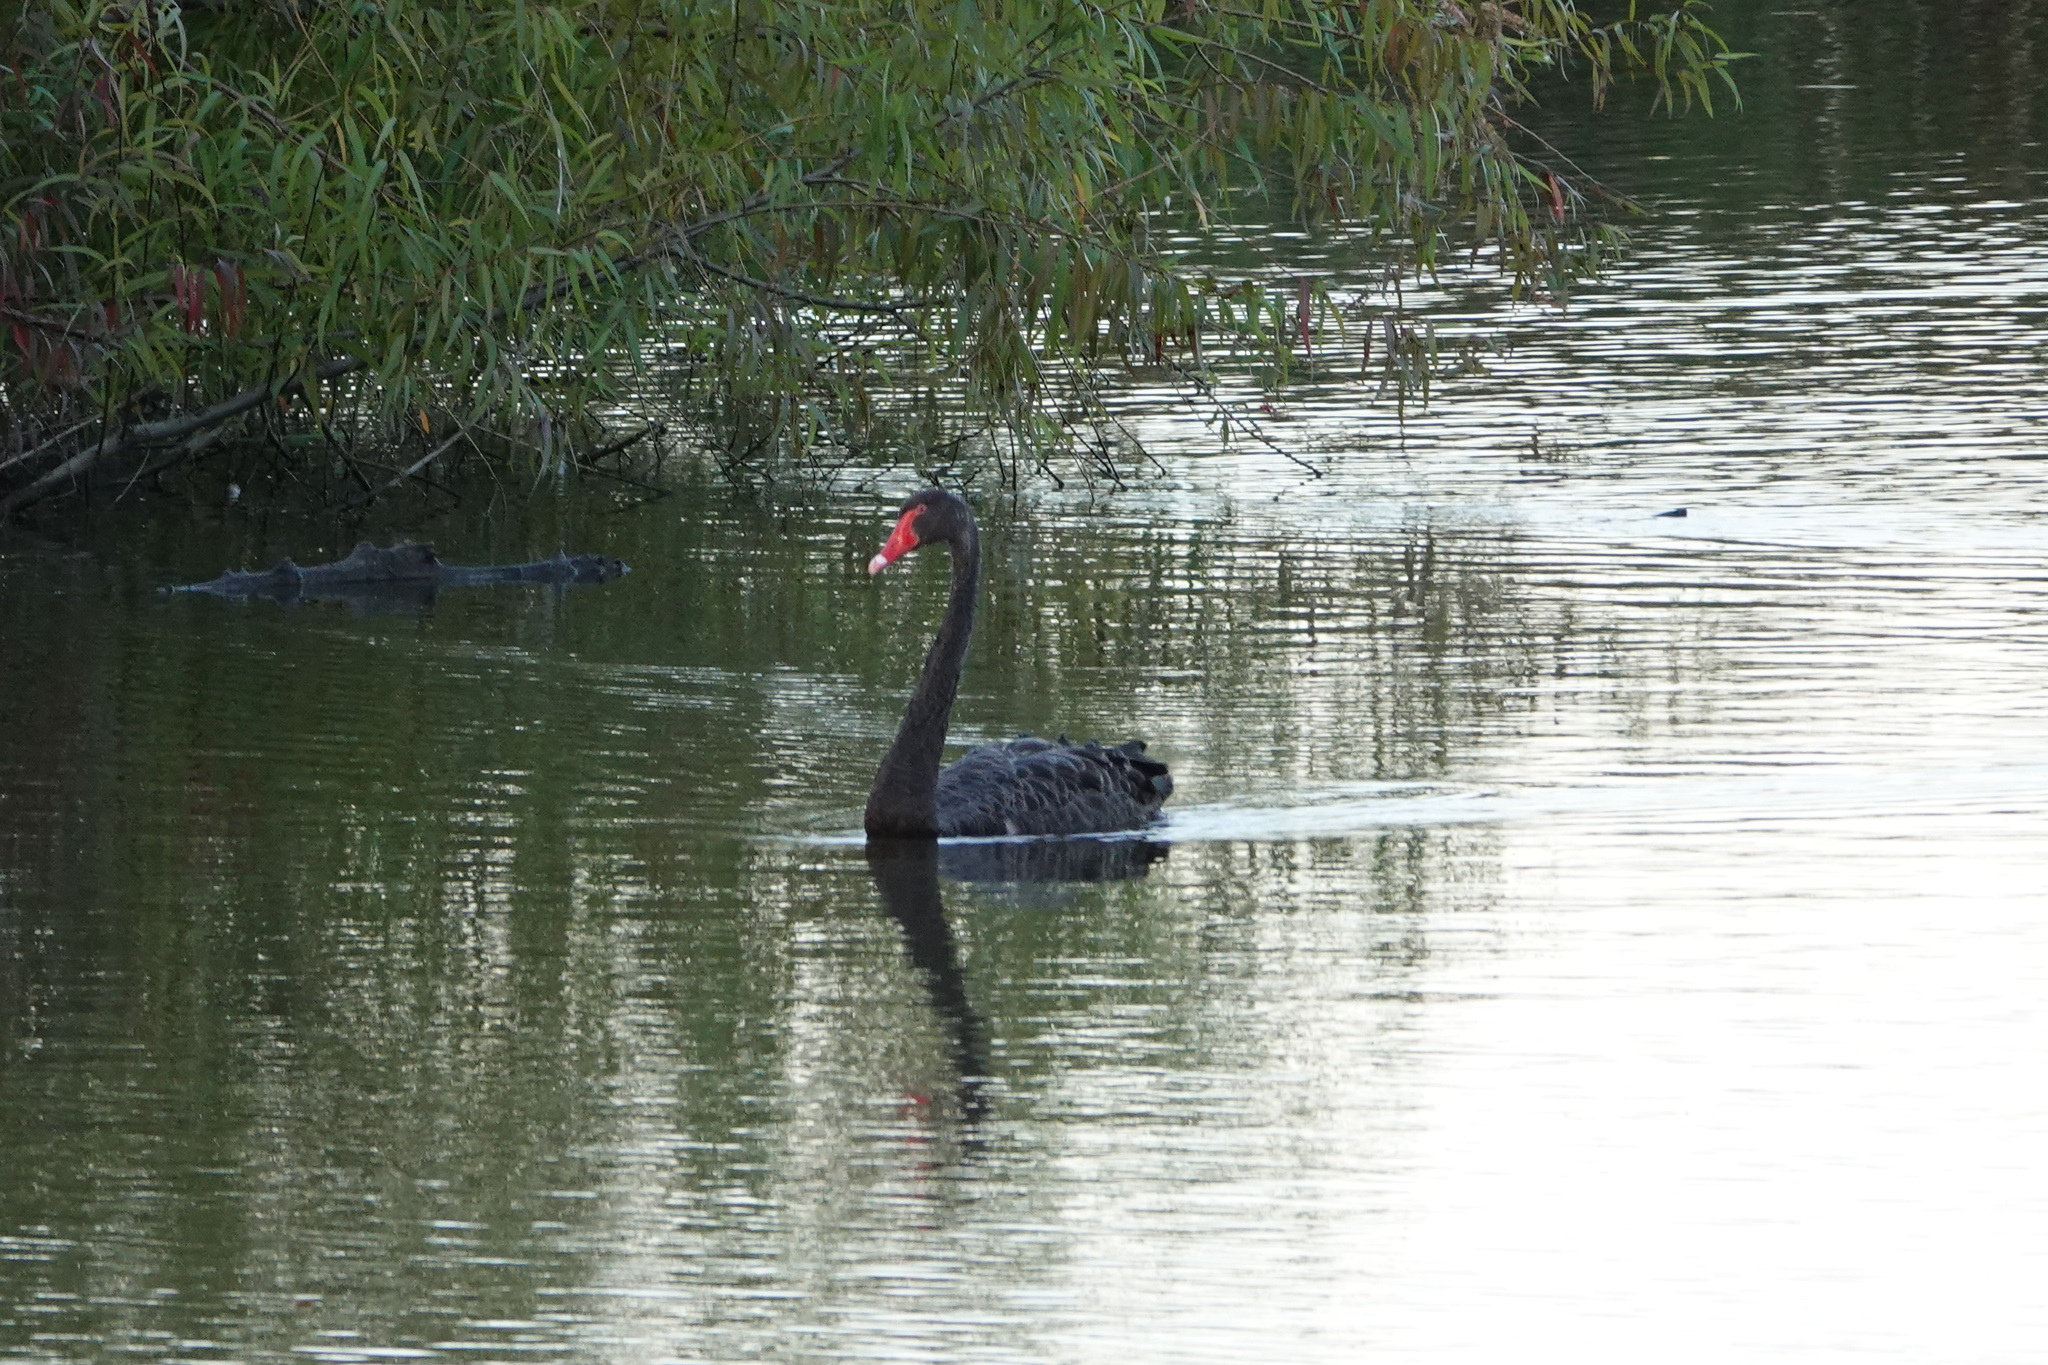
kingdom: Animalia
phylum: Chordata
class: Aves
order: Anseriformes
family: Anatidae
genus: Cygnus
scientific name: Cygnus atratus
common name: Black swan
